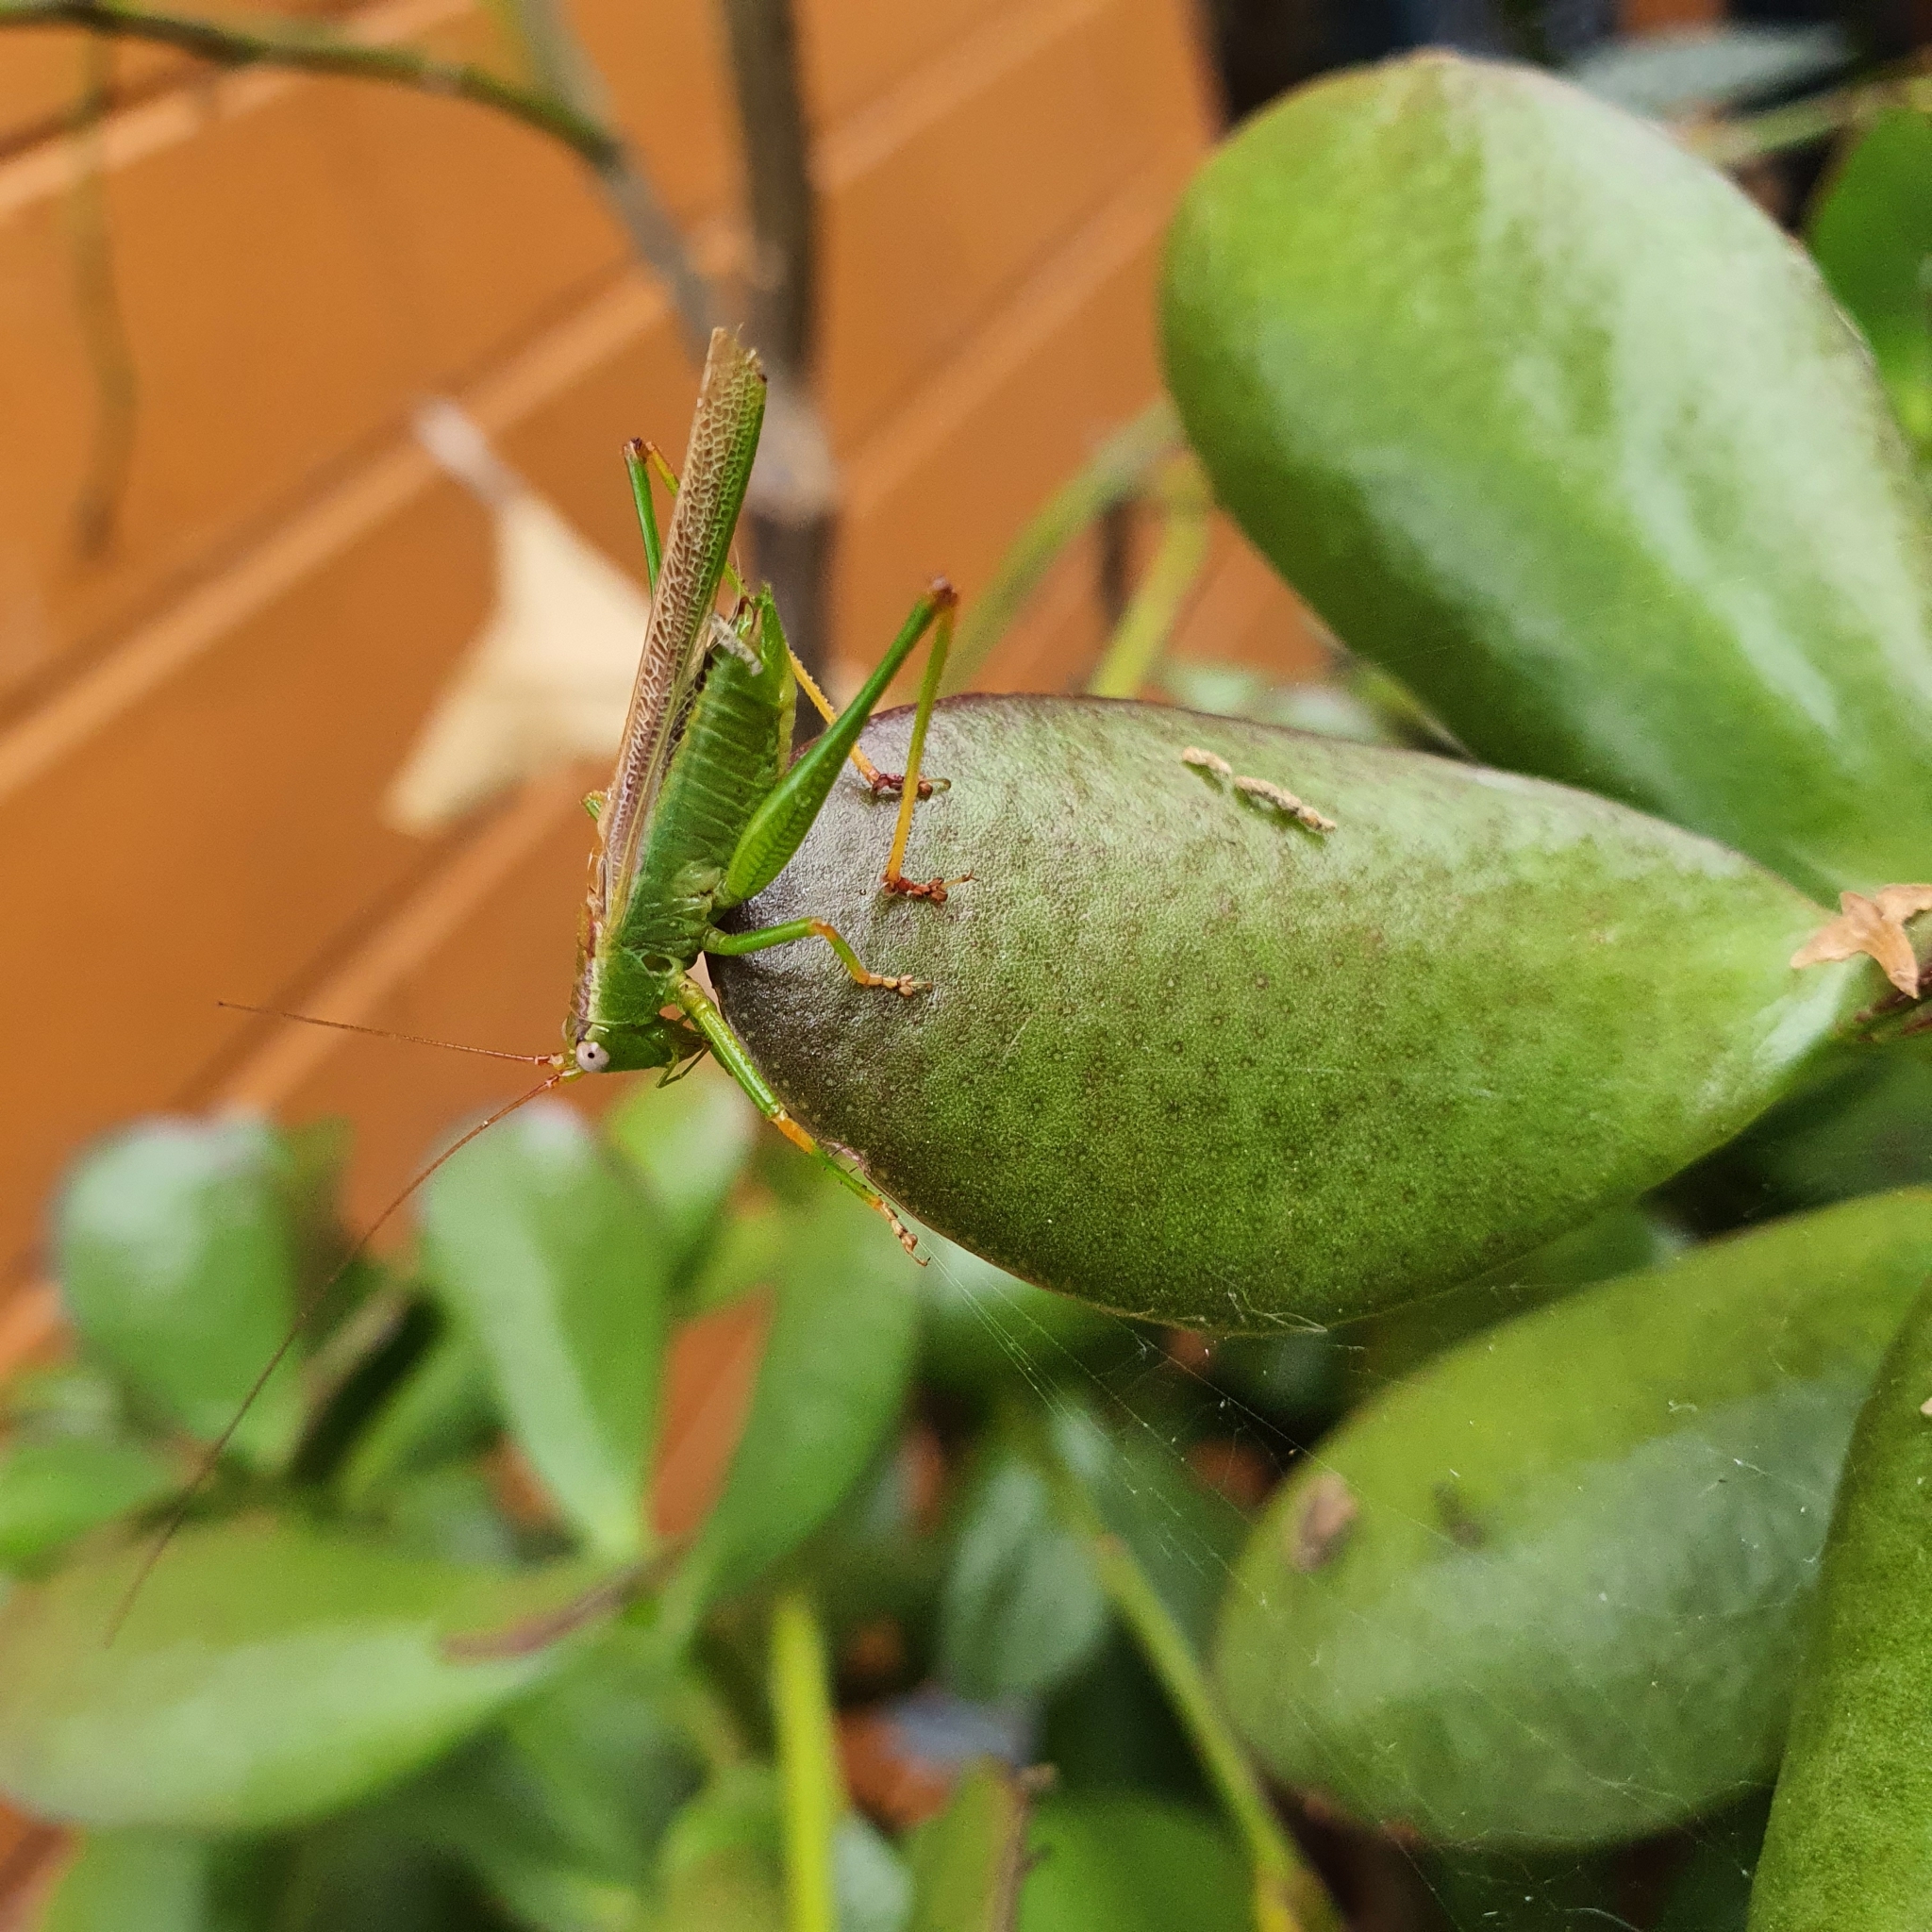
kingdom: Animalia
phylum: Arthropoda
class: Insecta
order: Orthoptera
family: Tettigoniidae
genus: Conocephalomima
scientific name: Conocephalomima barameda
